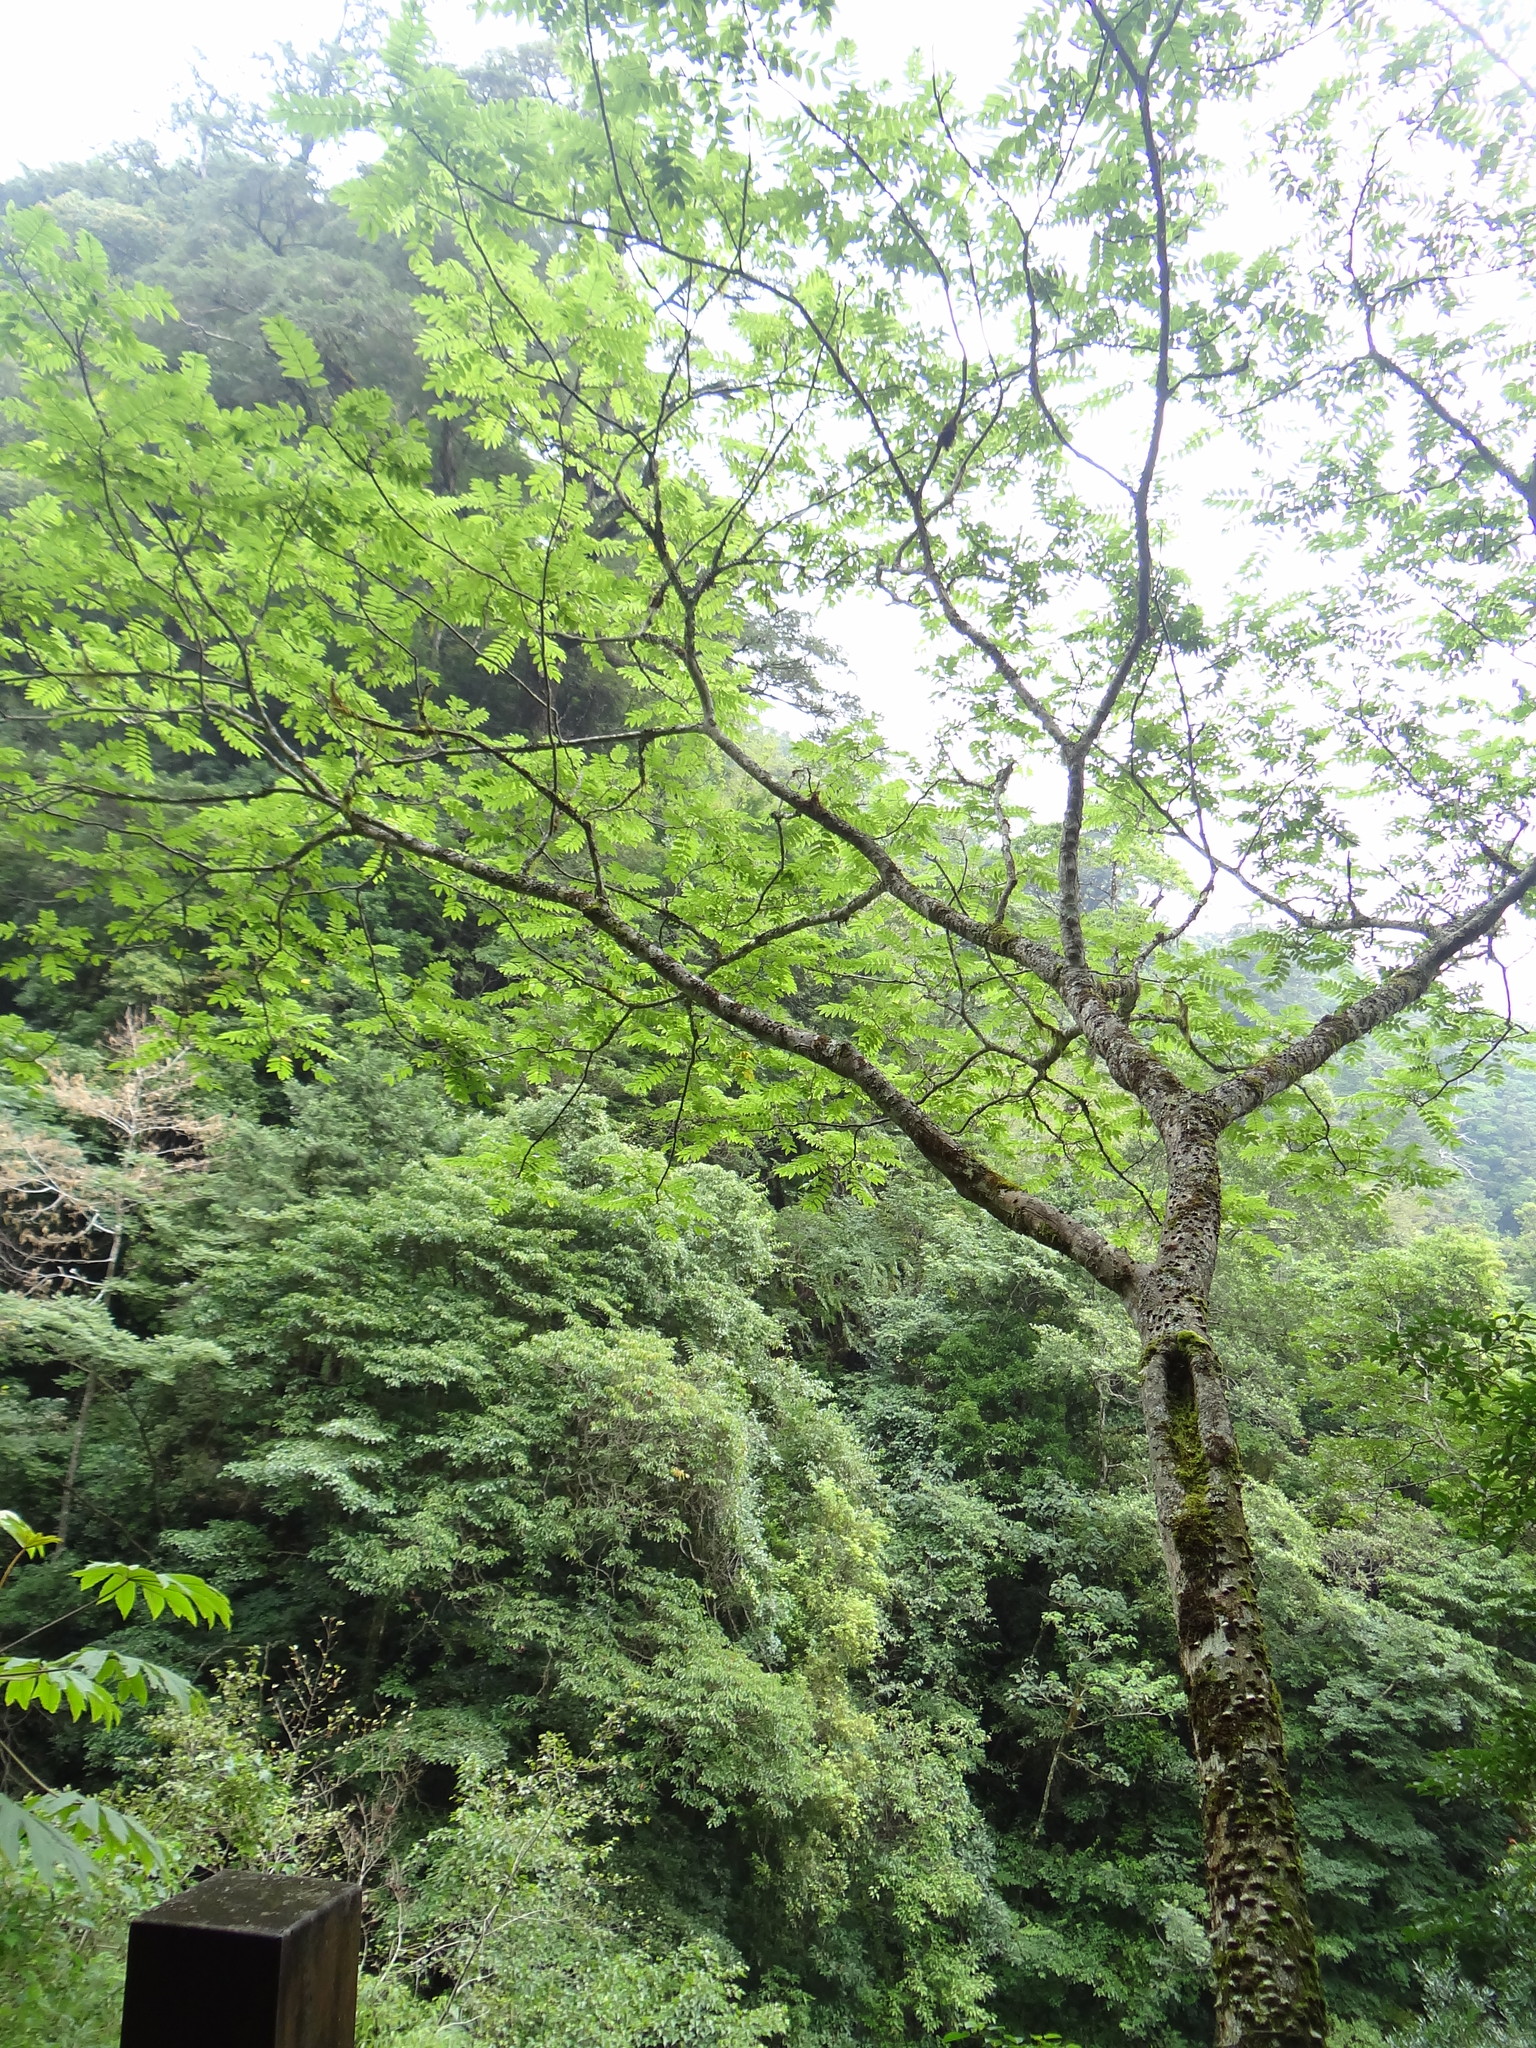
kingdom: Plantae
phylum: Tracheophyta
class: Magnoliopsida
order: Sapindales
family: Rutaceae
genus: Zanthoxylum
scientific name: Zanthoxylum ailanthoides
